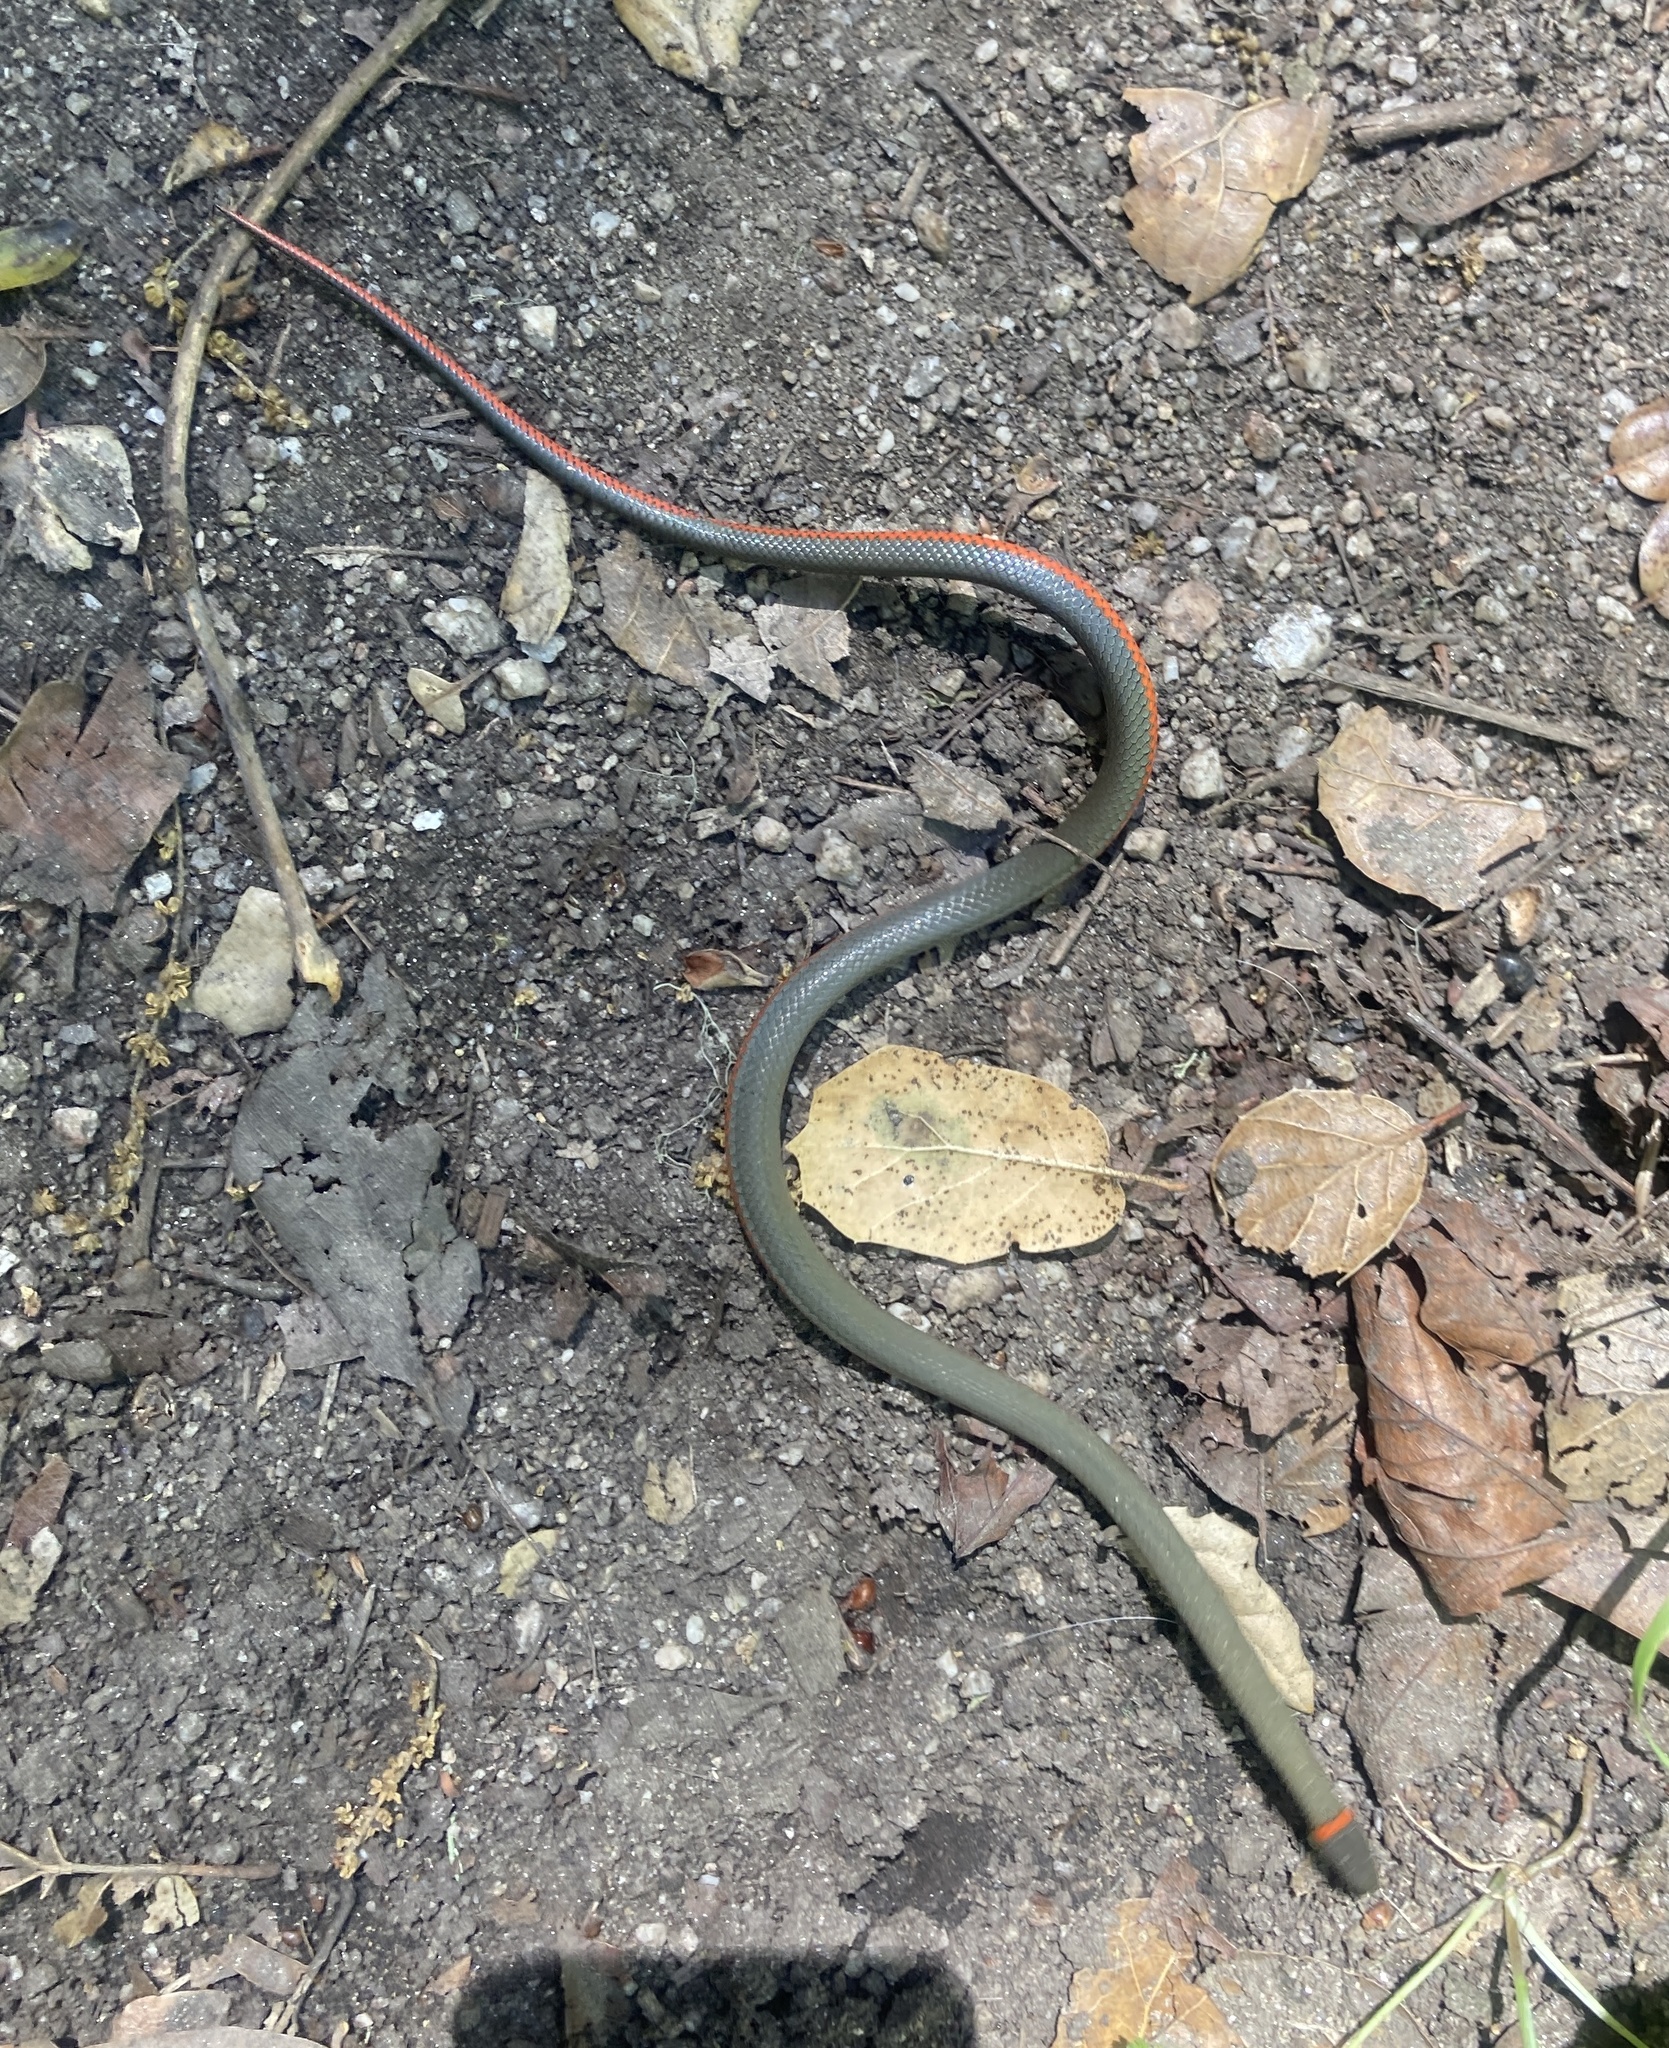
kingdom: Animalia
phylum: Chordata
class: Squamata
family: Colubridae
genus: Diadophis
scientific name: Diadophis punctatus
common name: Ringneck snake
